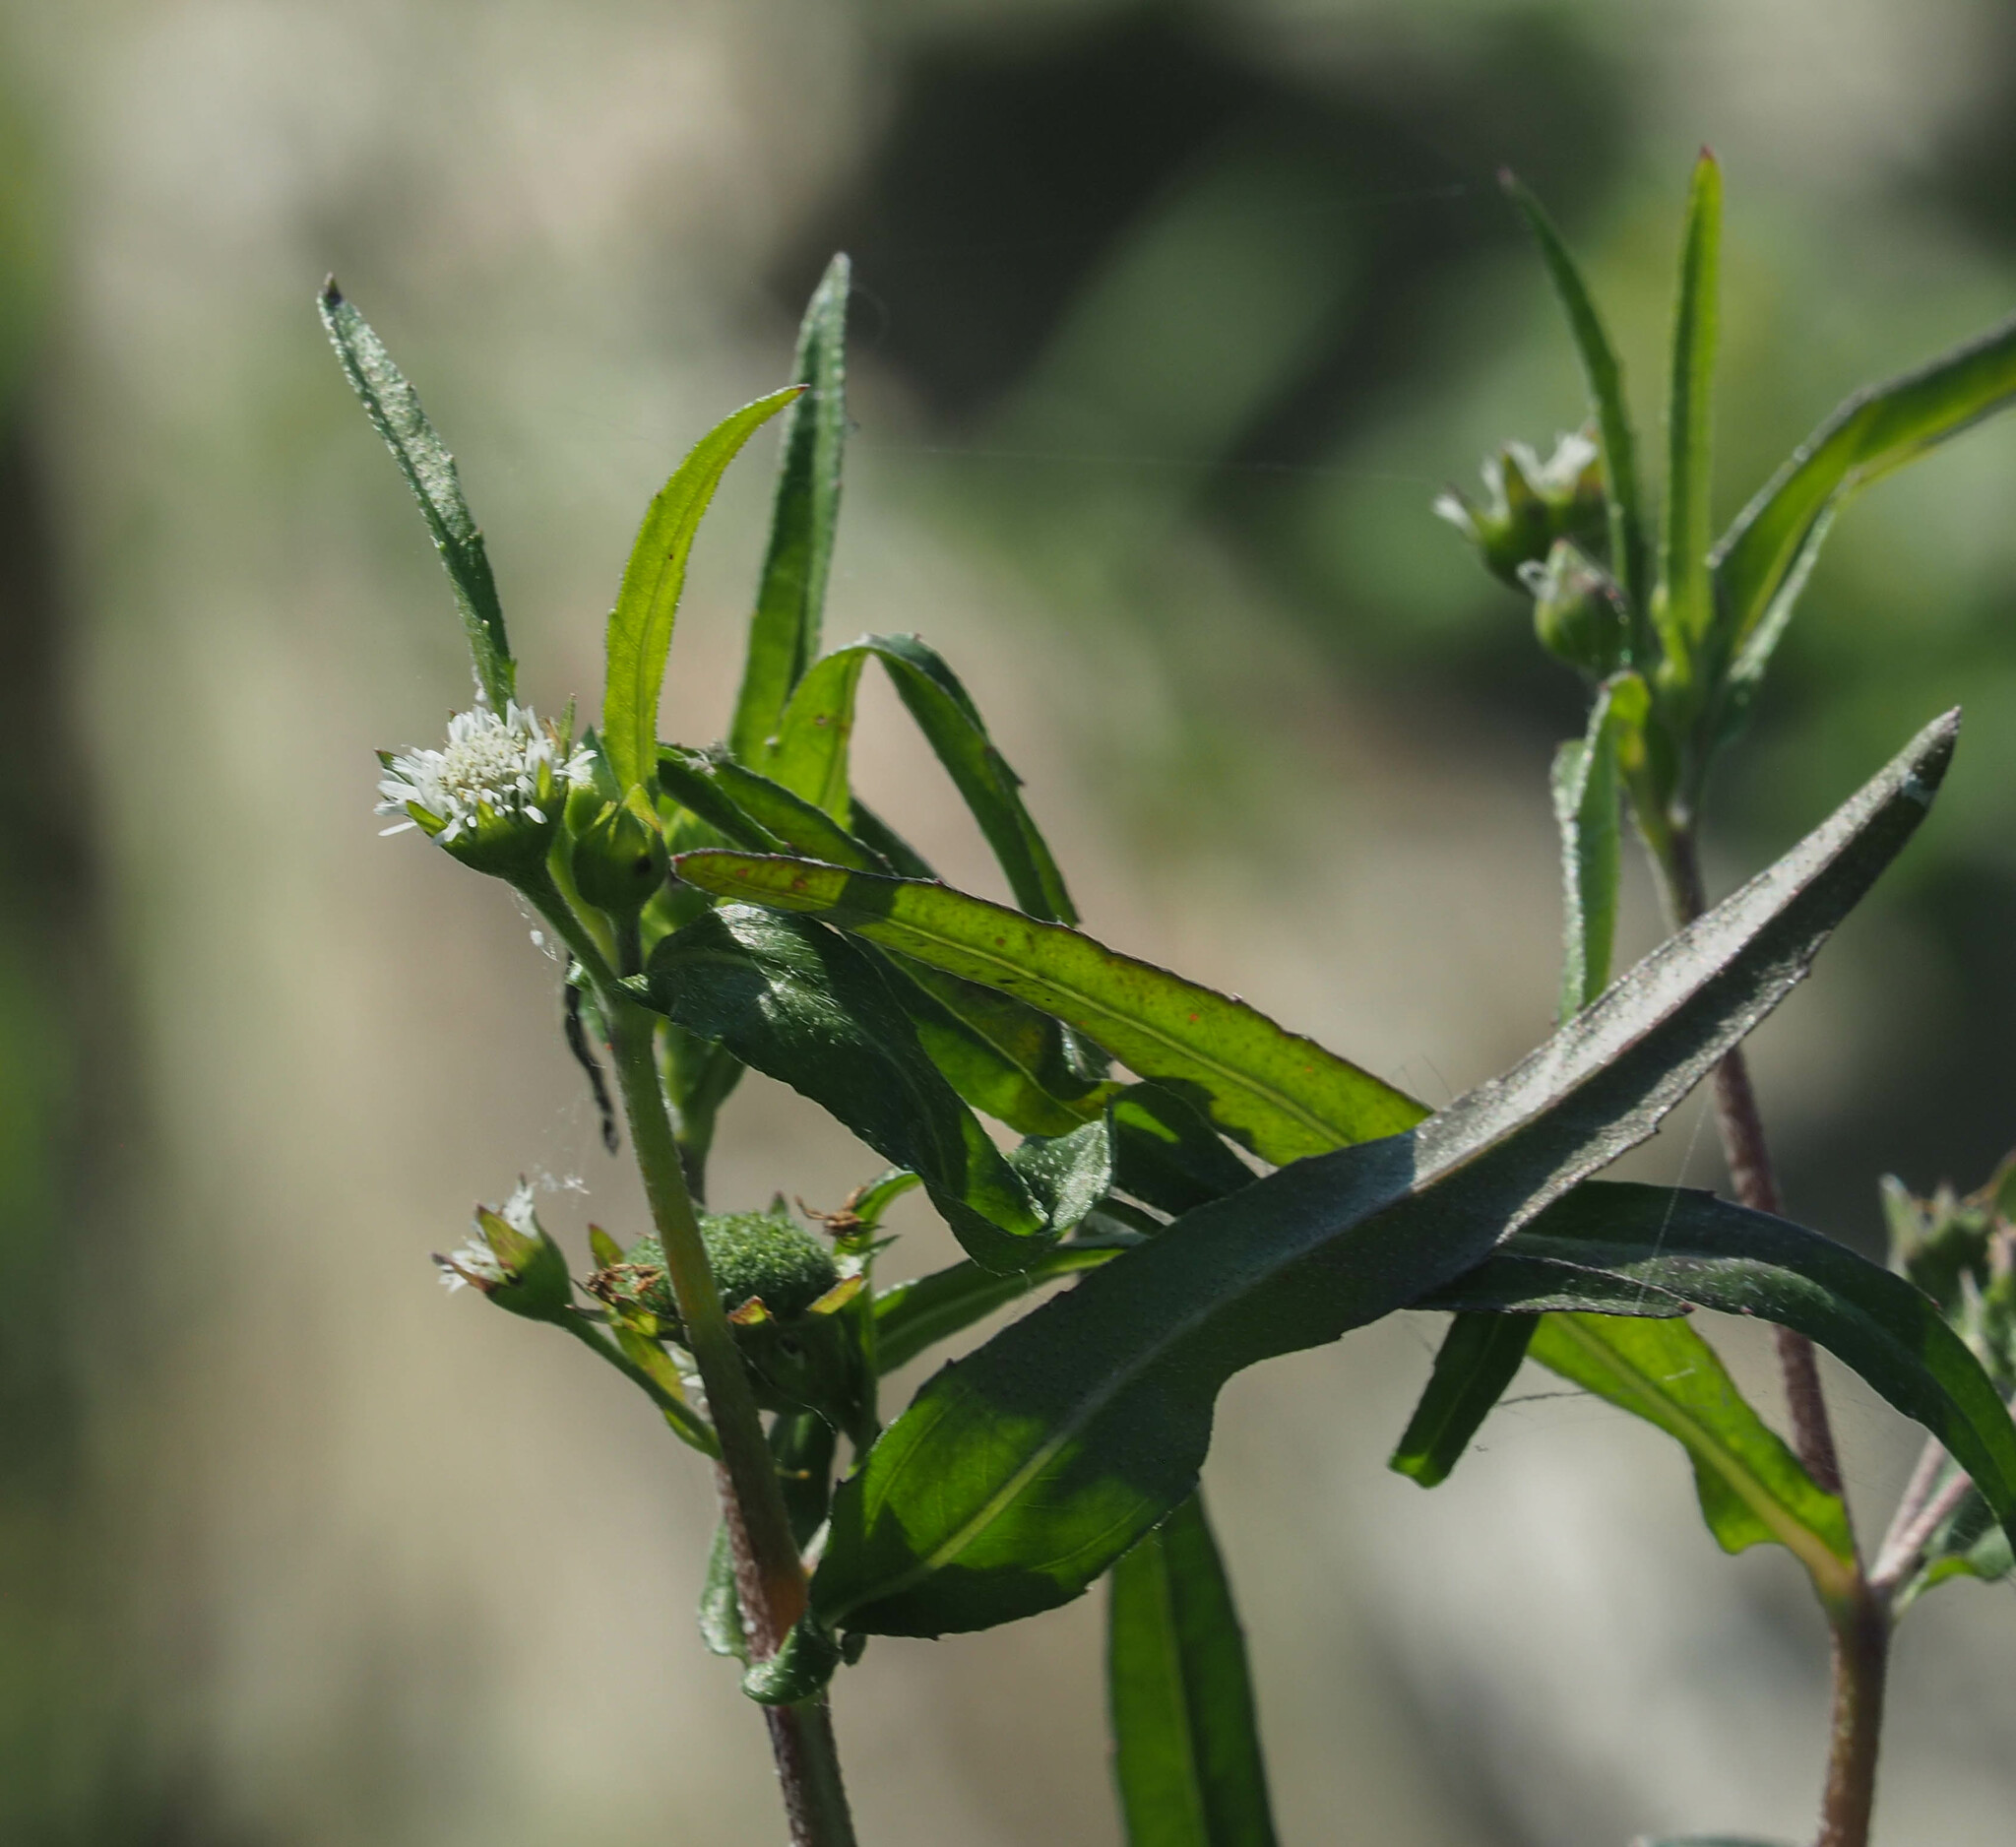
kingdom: Plantae
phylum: Tracheophyta
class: Magnoliopsida
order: Asterales
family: Asteraceae
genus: Eclipta
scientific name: Eclipta prostrata
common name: False daisy
